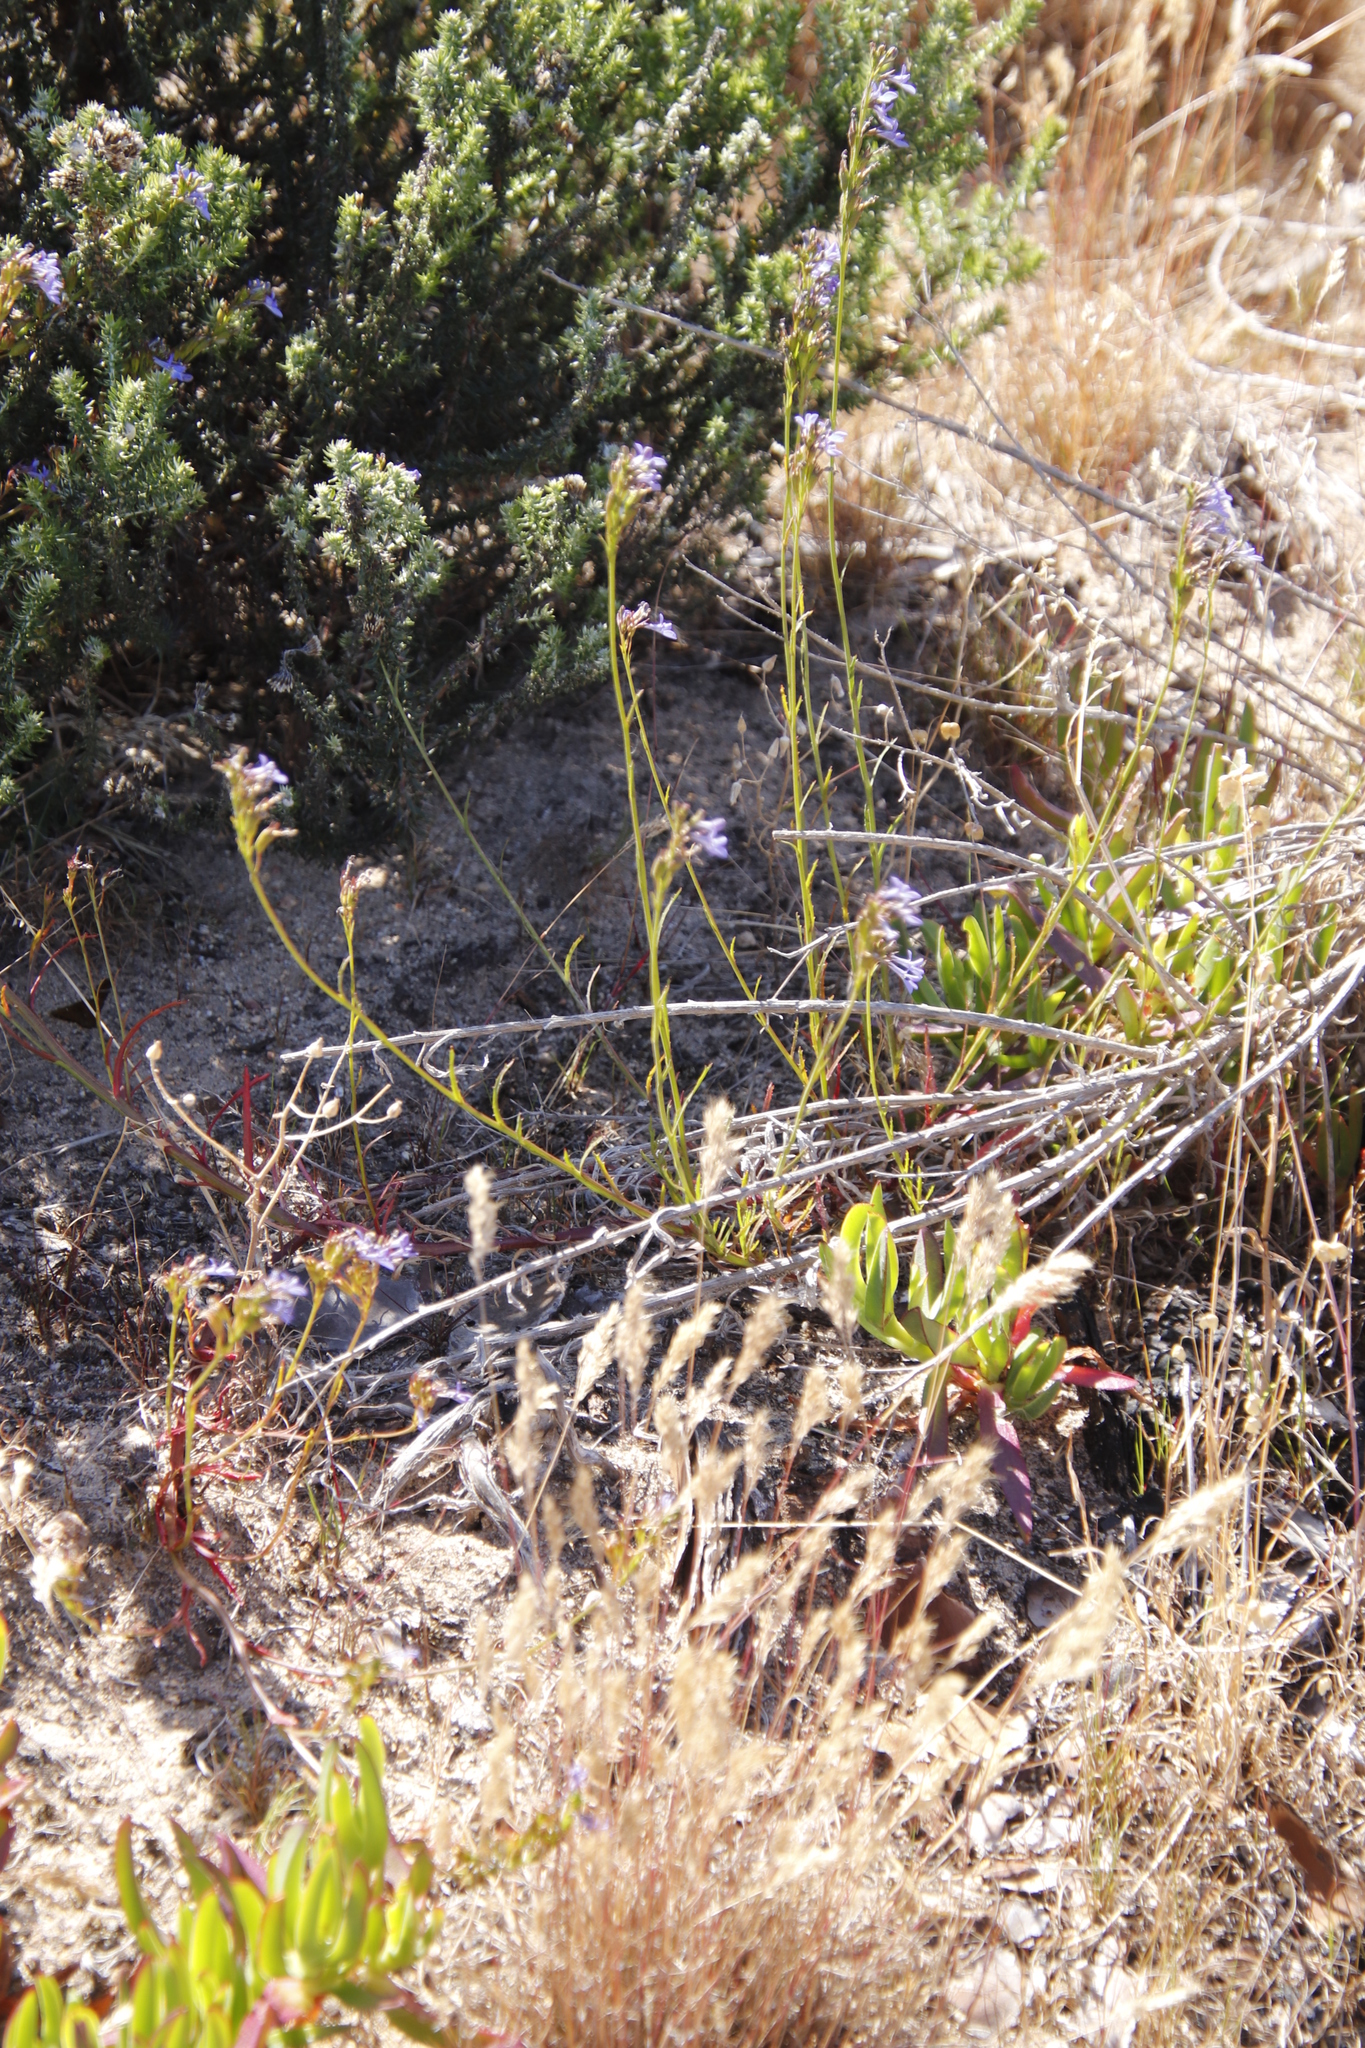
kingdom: Plantae
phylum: Tracheophyta
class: Magnoliopsida
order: Asterales
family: Campanulaceae
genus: Lobelia
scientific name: Lobelia comosa
